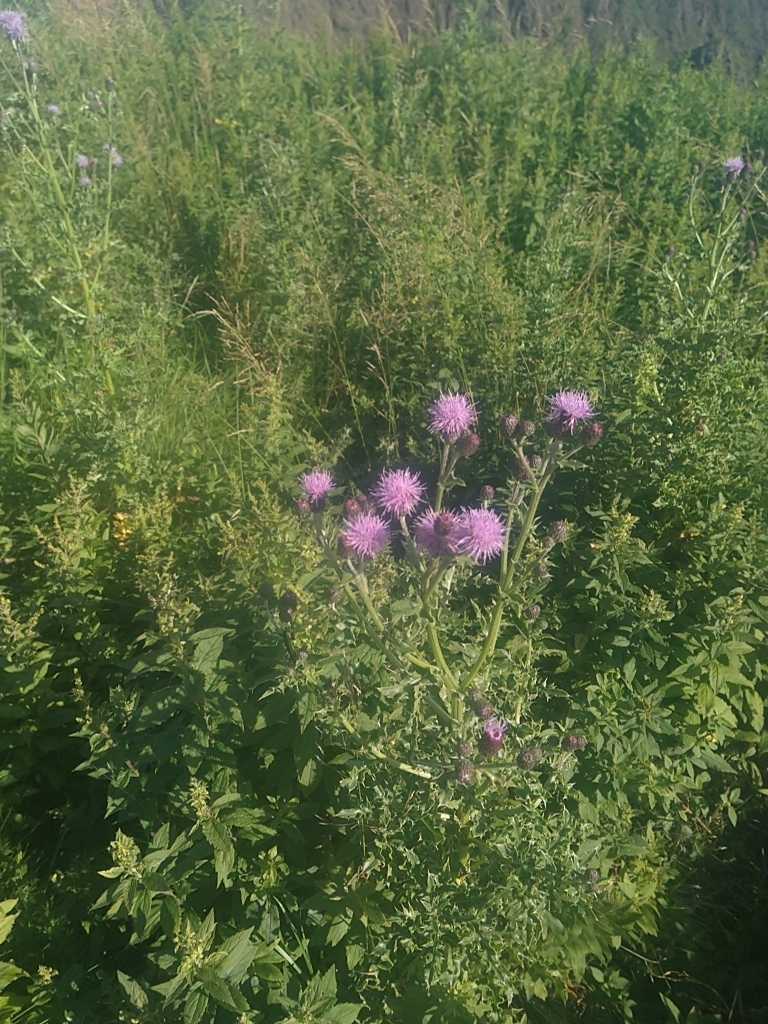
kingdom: Plantae
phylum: Tracheophyta
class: Magnoliopsida
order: Asterales
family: Asteraceae
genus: Cirsium
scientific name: Cirsium arvense
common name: Creeping thistle
